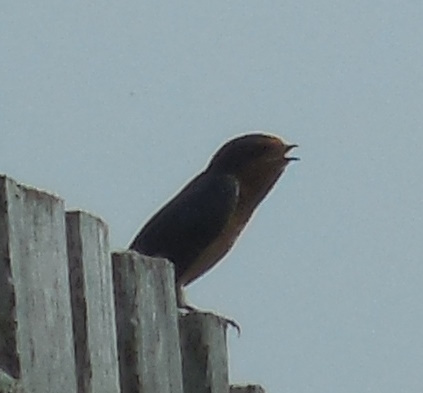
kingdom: Animalia
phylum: Chordata
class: Aves
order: Passeriformes
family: Hirundinidae
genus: Hirundo
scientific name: Hirundo rustica
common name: Barn swallow
